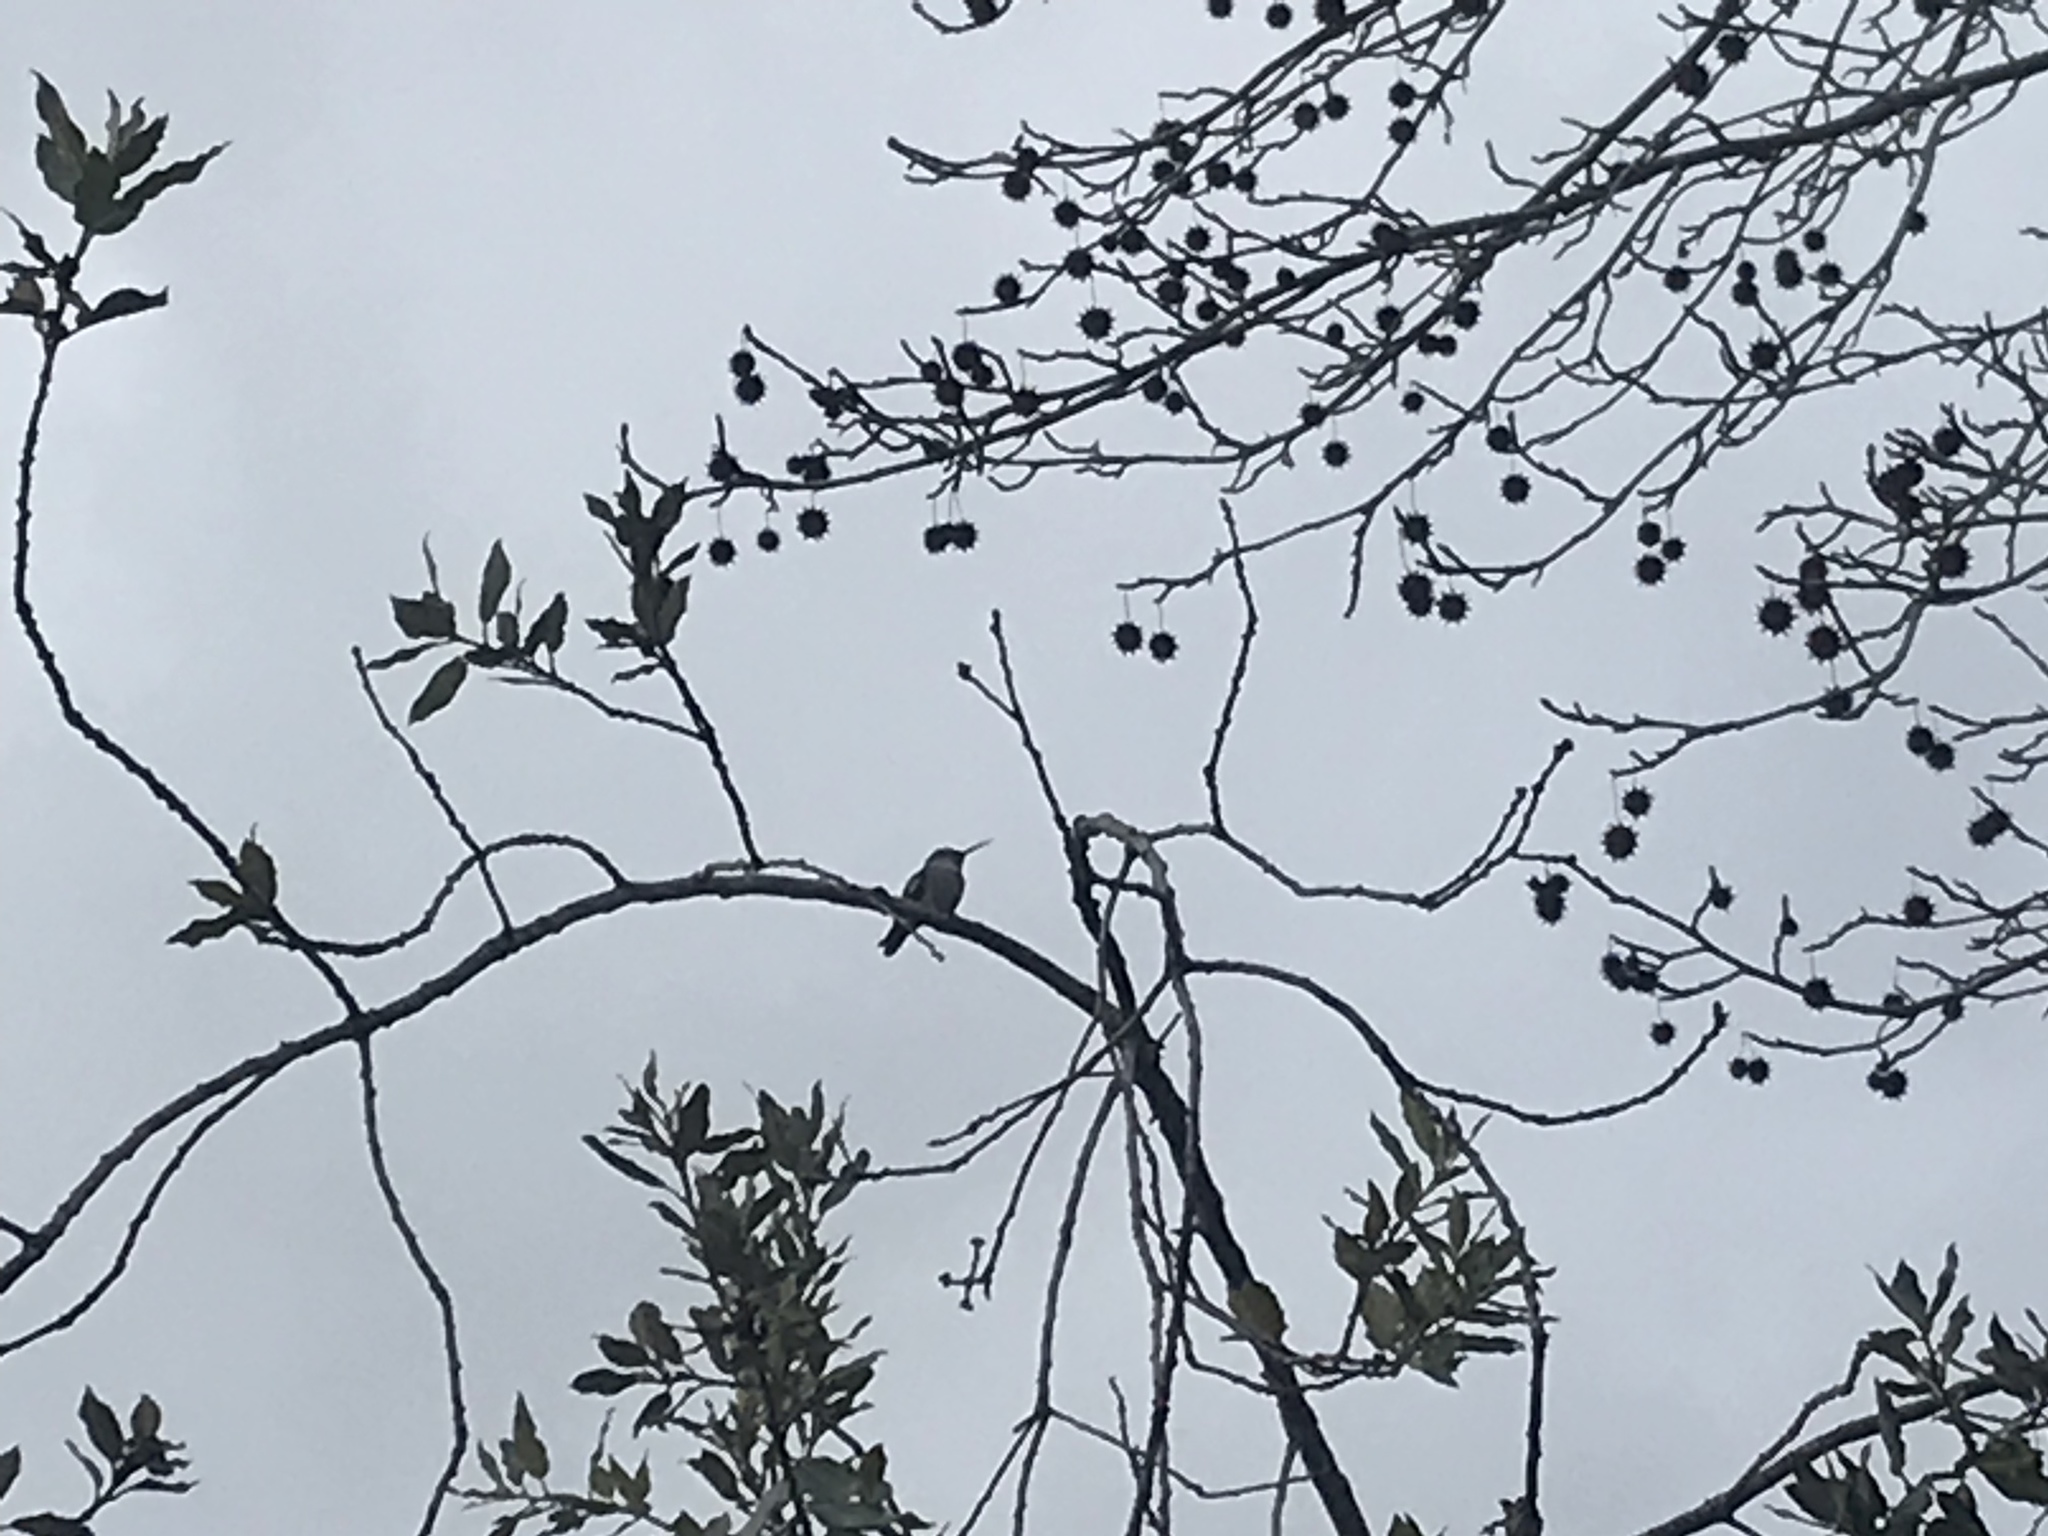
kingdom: Animalia
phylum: Chordata
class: Aves
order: Apodiformes
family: Trochilidae
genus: Calypte
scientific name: Calypte anna
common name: Anna's hummingbird
